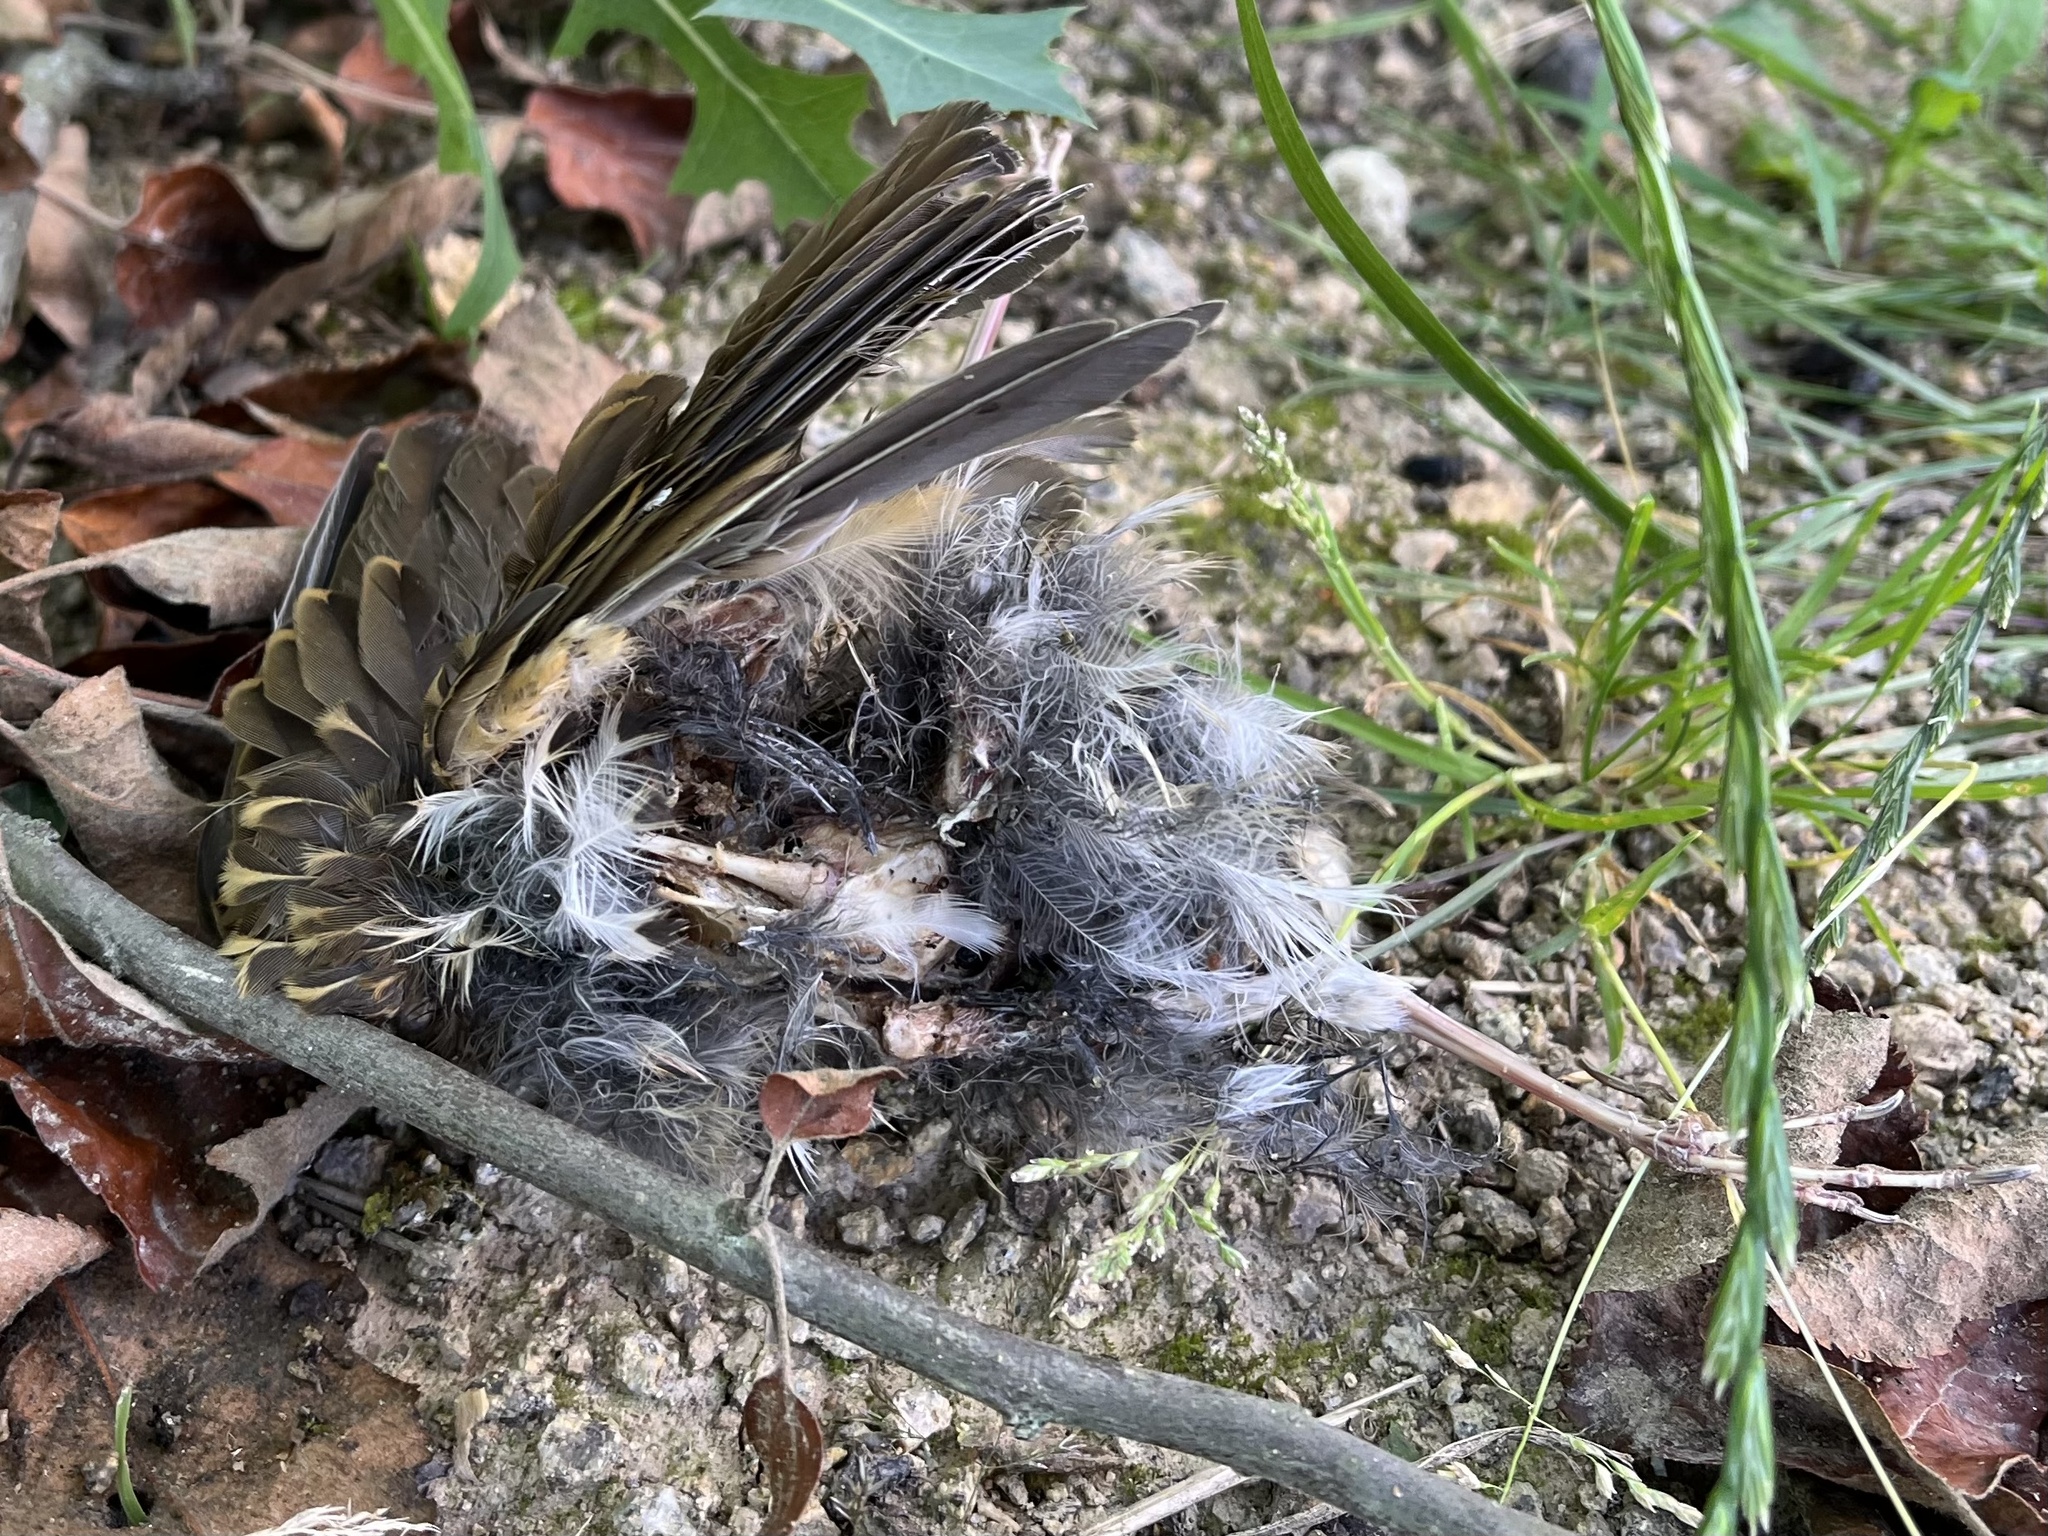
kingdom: Animalia
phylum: Chordata
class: Aves
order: Passeriformes
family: Turdidae
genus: Turdus
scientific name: Turdus philomelos
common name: Song thrush
